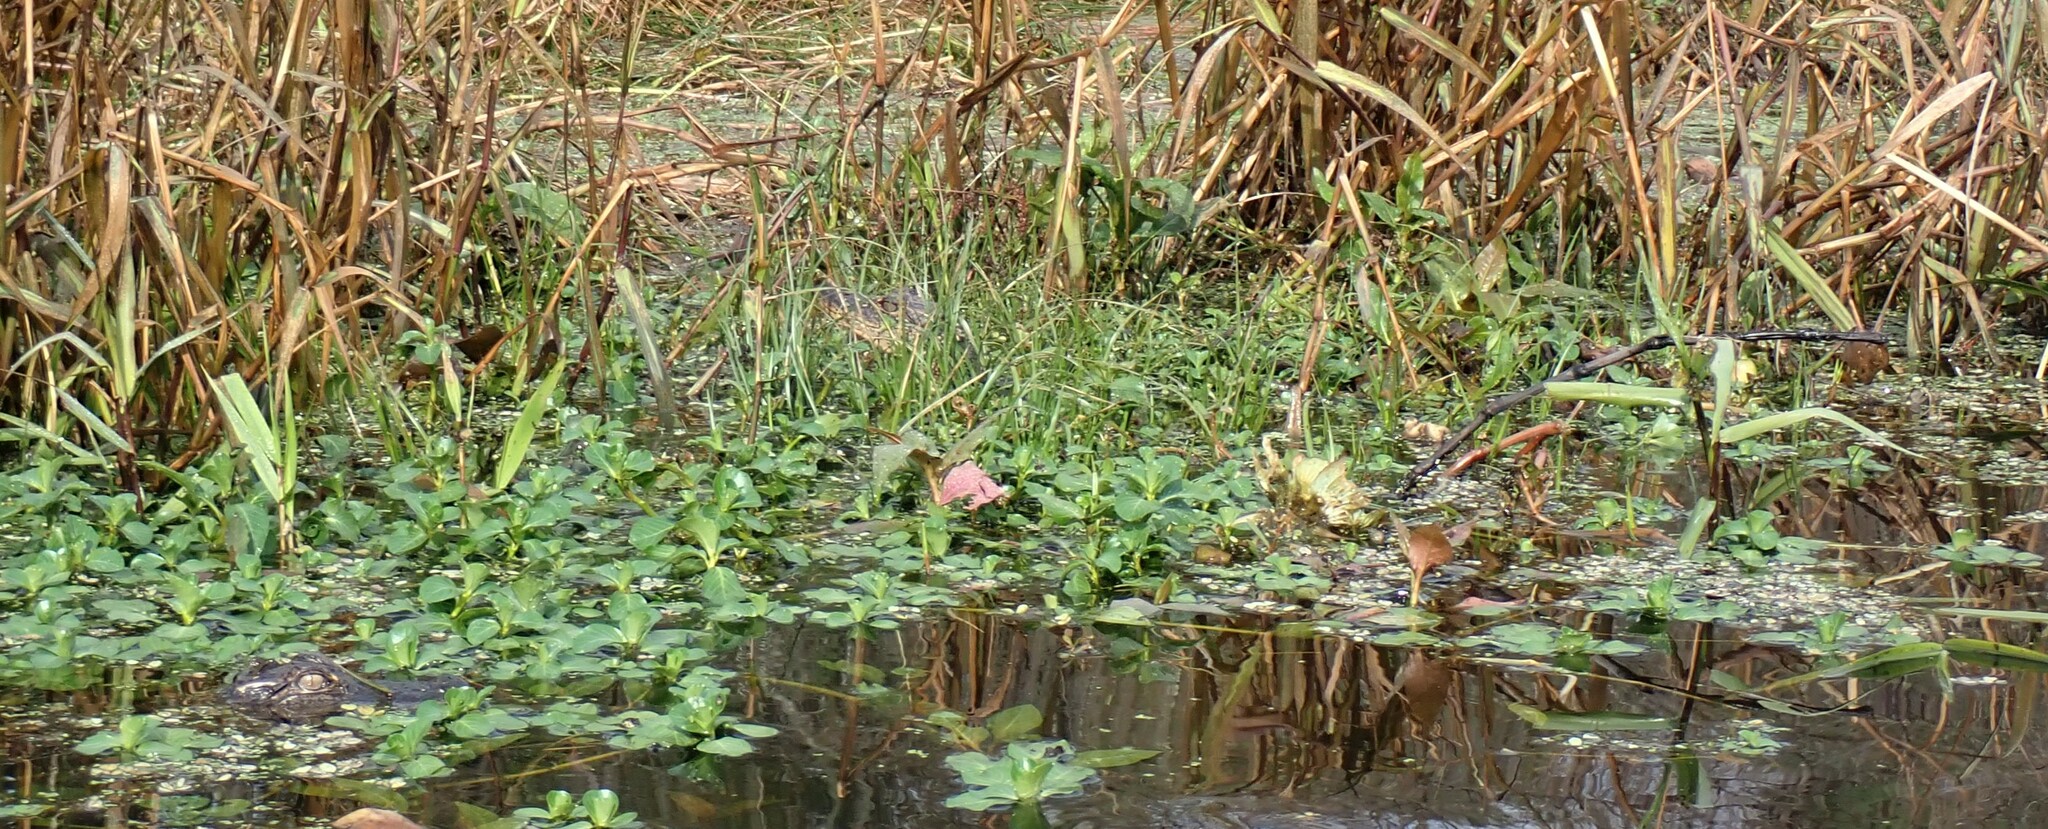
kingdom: Animalia
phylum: Chordata
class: Crocodylia
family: Alligatoridae
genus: Alligator
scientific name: Alligator mississippiensis
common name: American alligator
